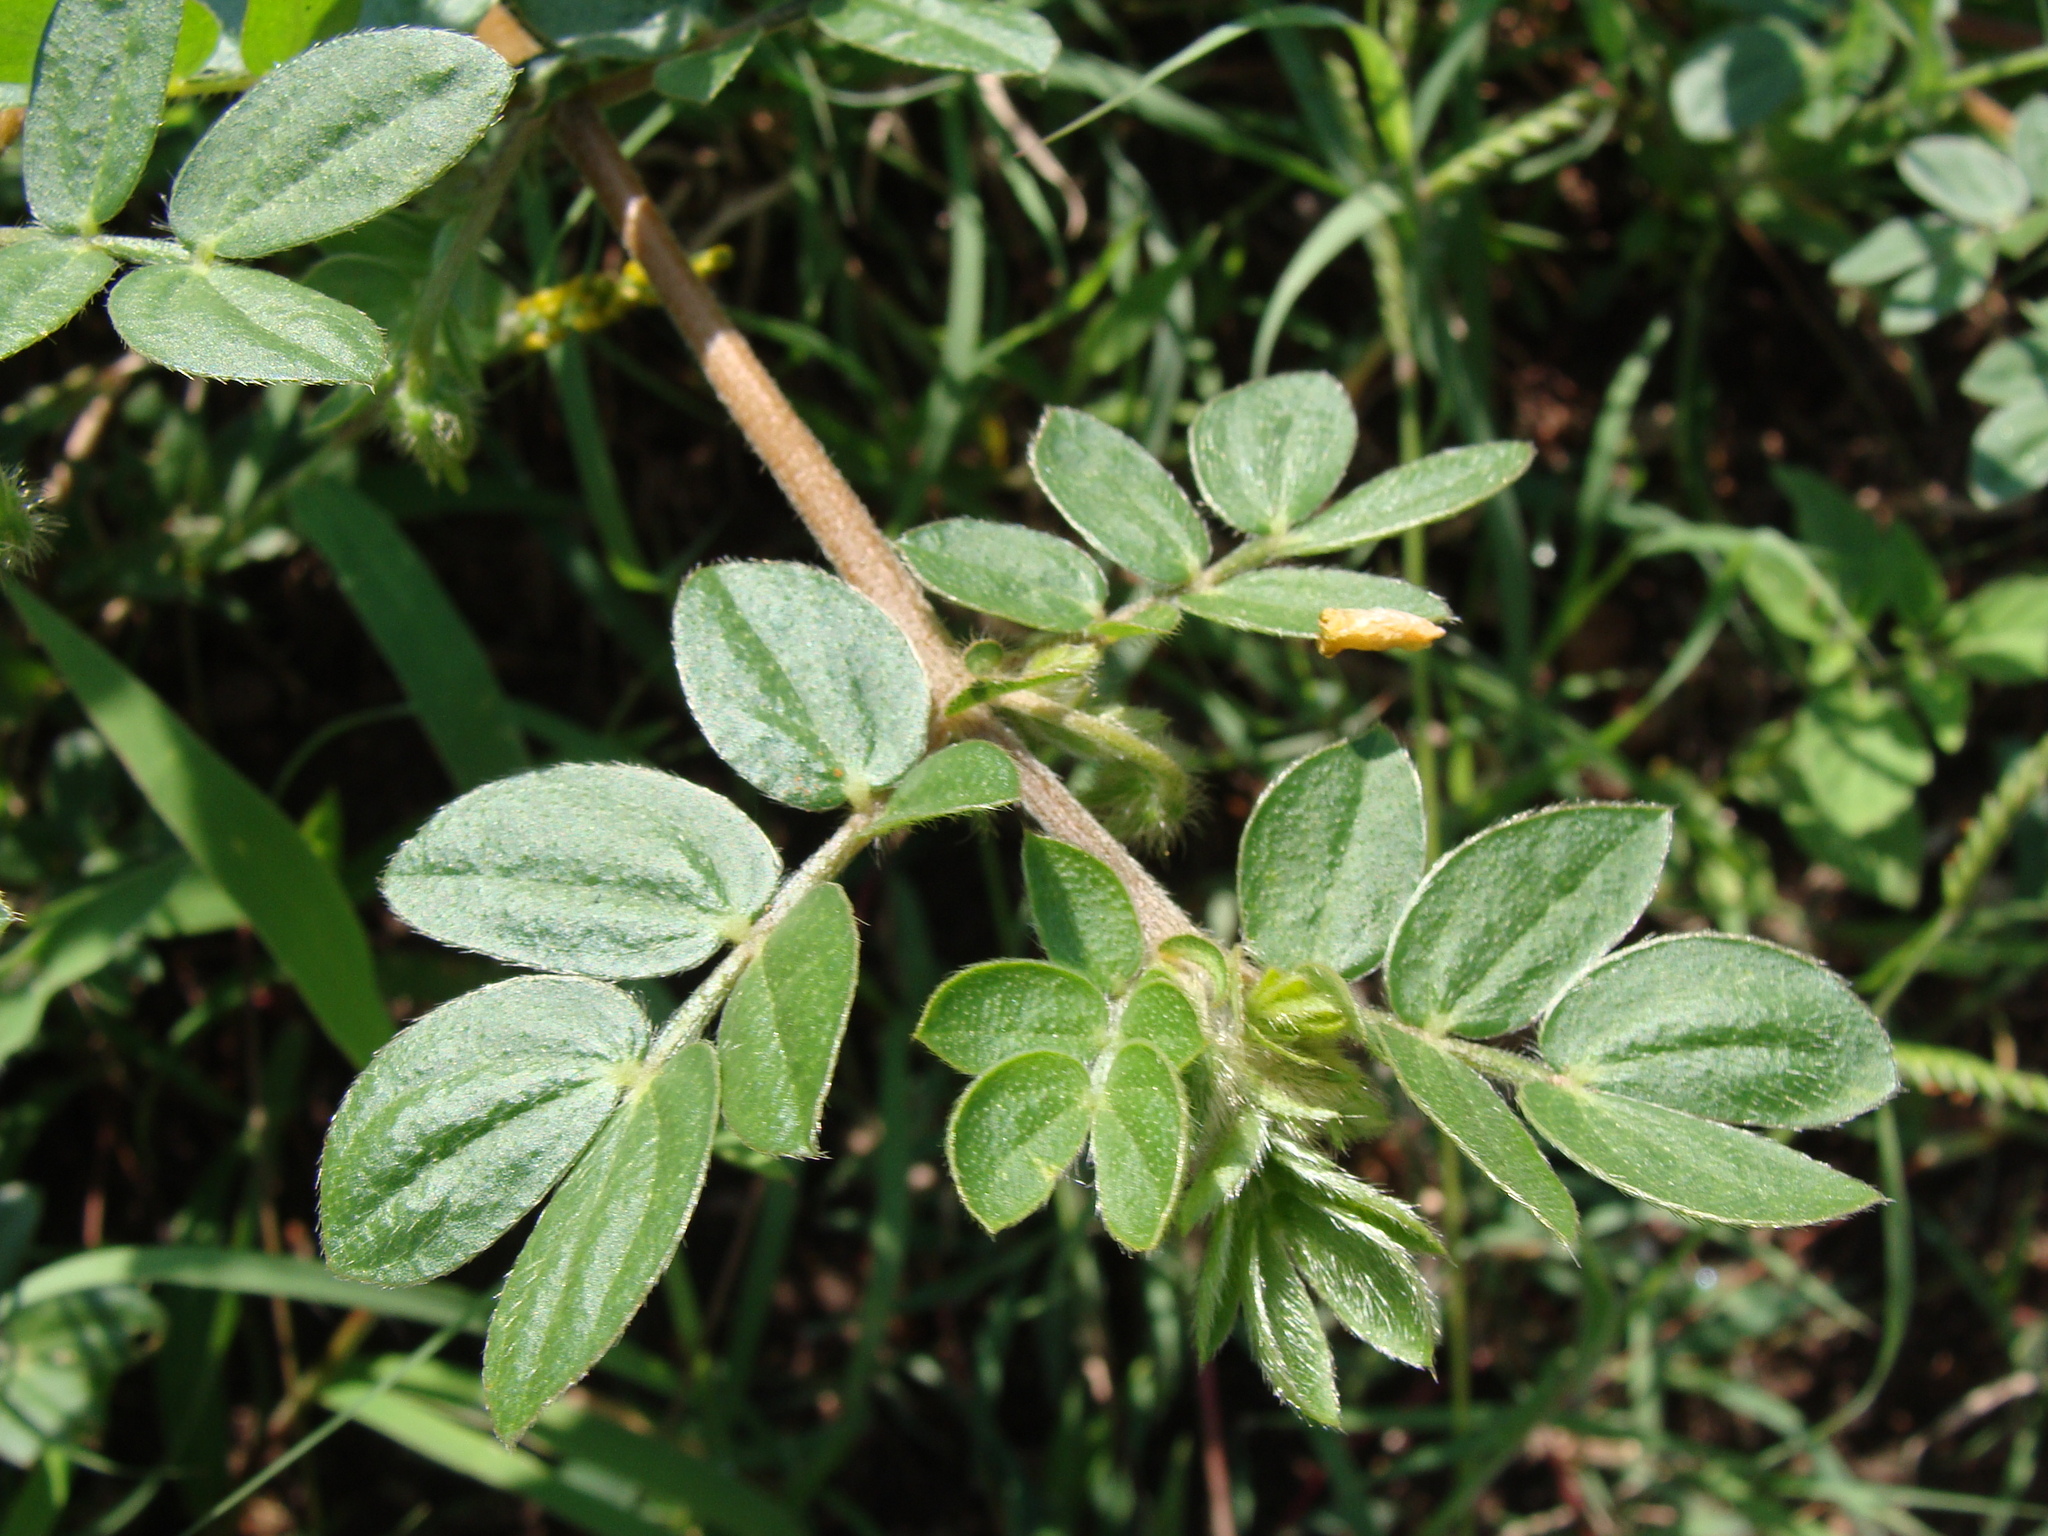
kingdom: Plantae
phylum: Tracheophyta
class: Magnoliopsida
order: Zygophyllales
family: Zygophyllaceae
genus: Kallstroemia
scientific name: Kallstroemia rosei
